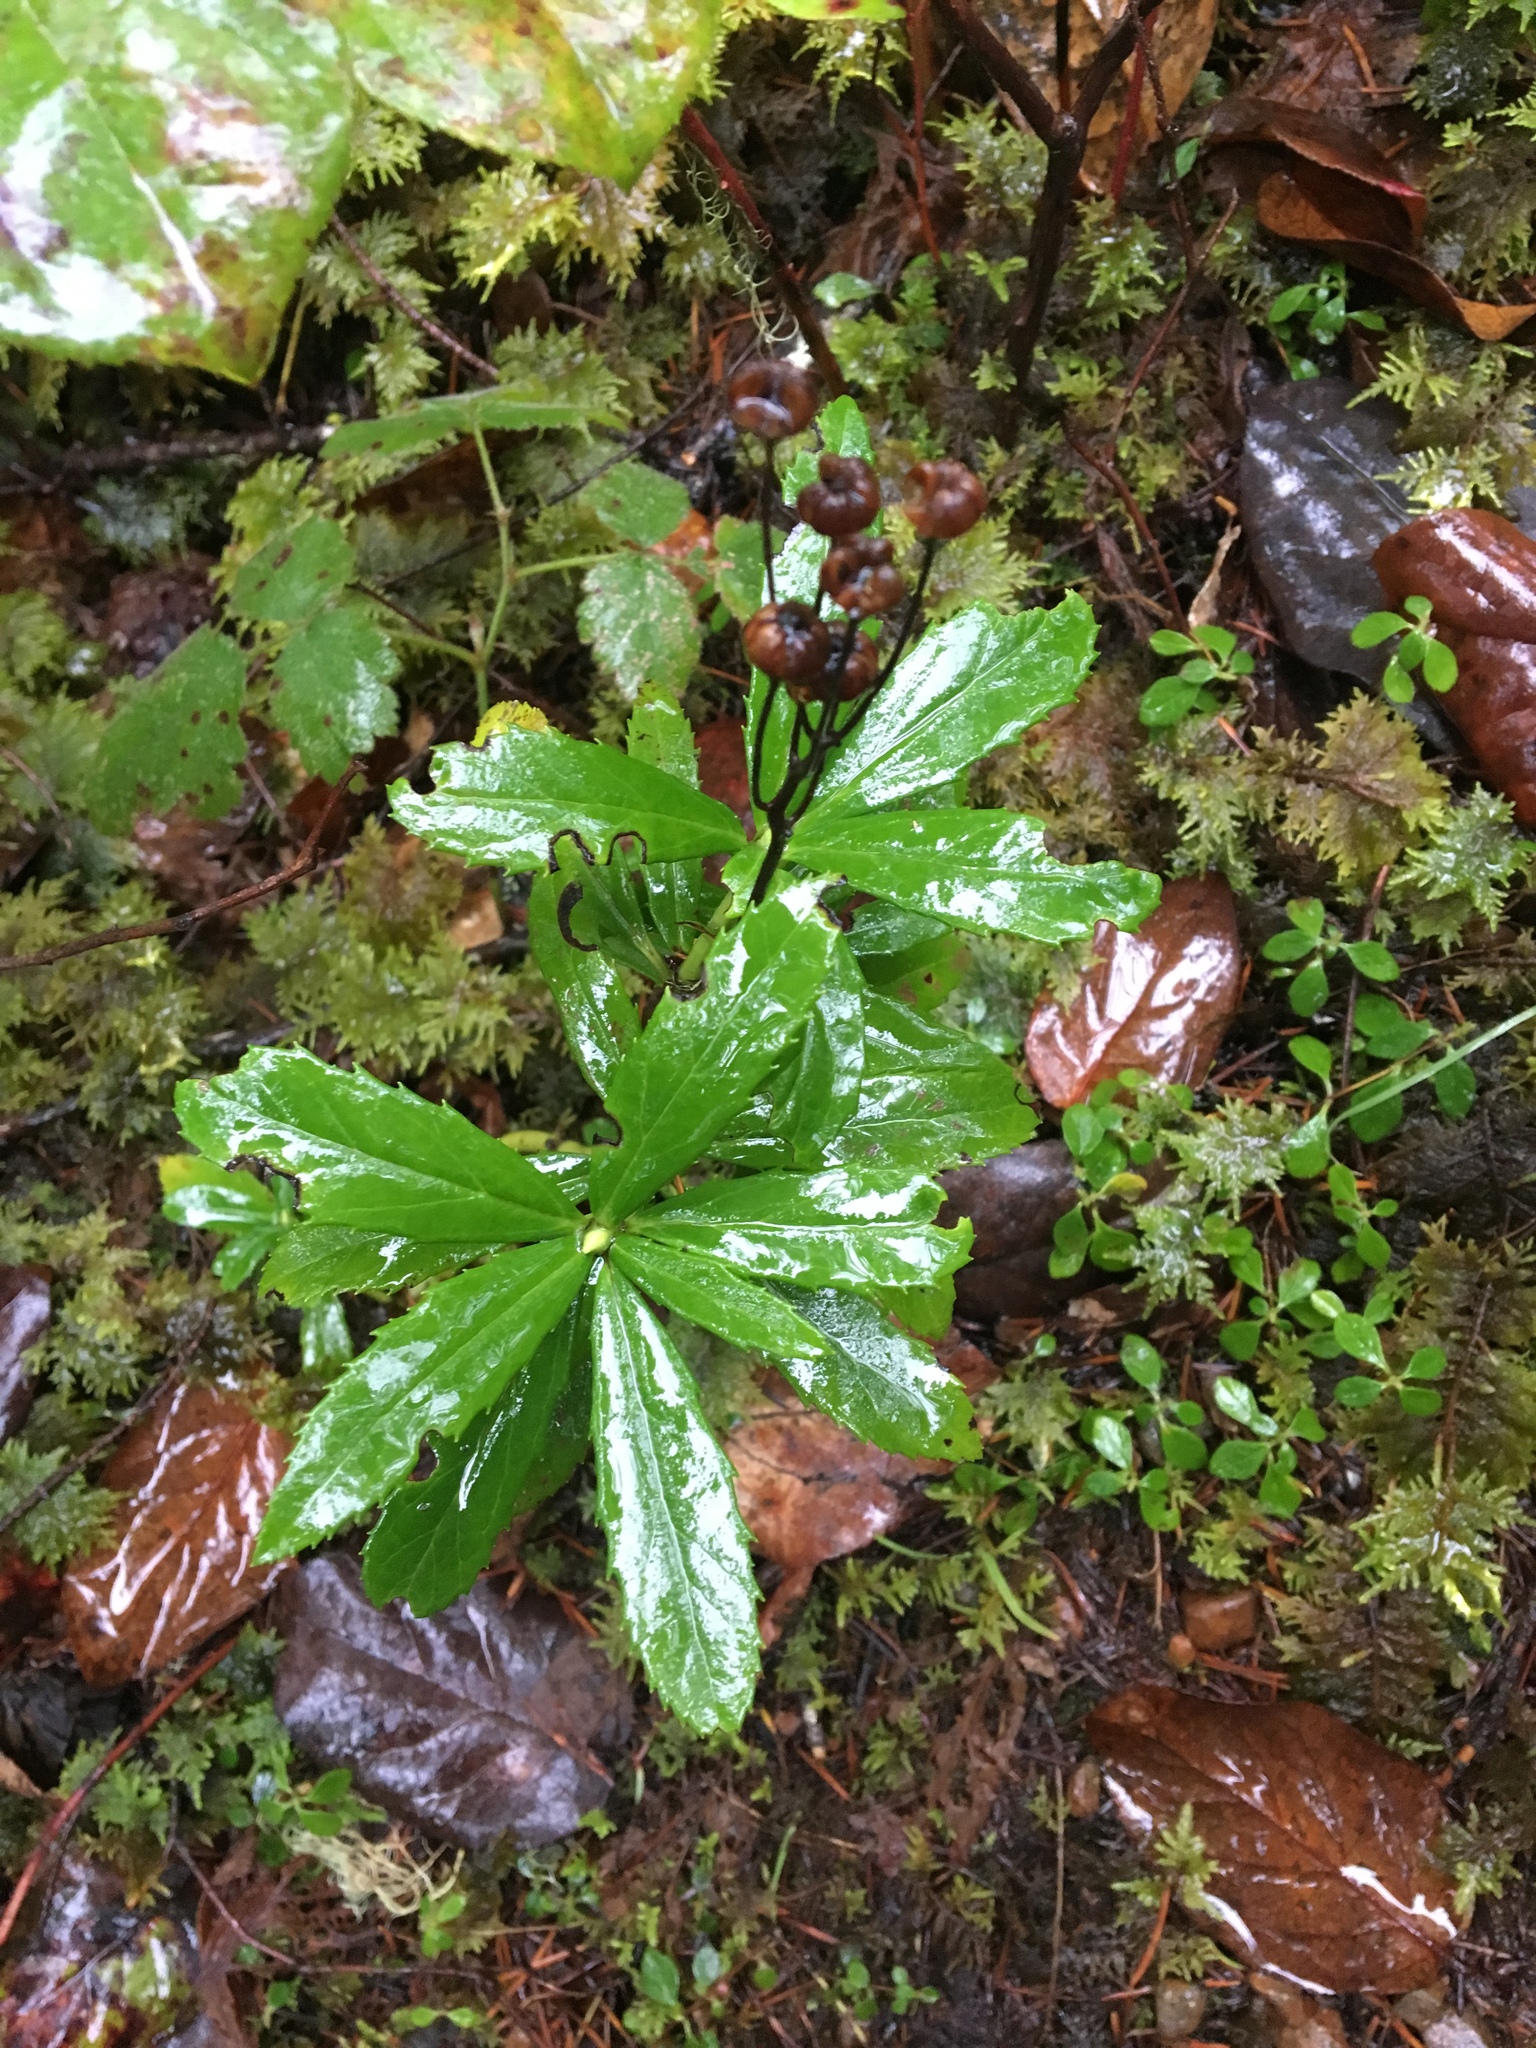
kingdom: Plantae
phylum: Tracheophyta
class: Magnoliopsida
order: Ericales
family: Ericaceae
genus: Chimaphila
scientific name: Chimaphila umbellata
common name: Pipsissewa
